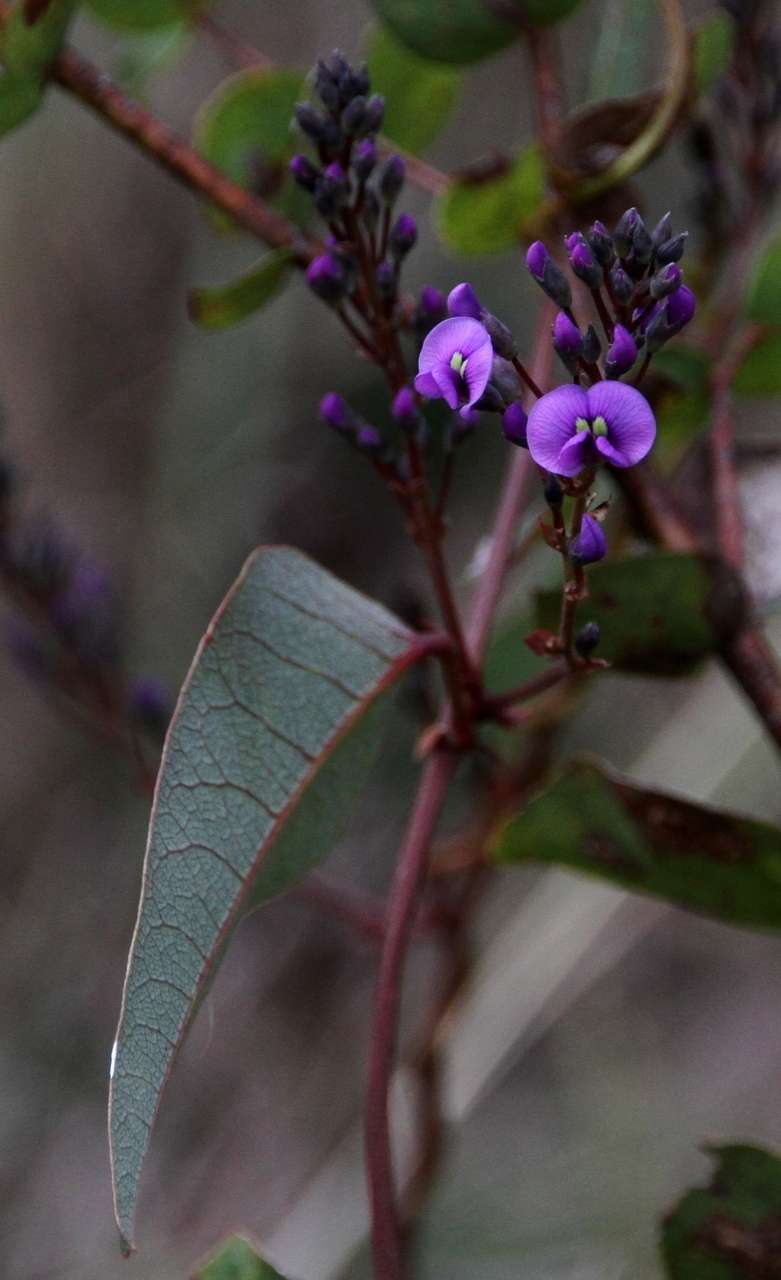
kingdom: Plantae
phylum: Tracheophyta
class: Magnoliopsida
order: Fabales
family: Fabaceae
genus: Hardenbergia
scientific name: Hardenbergia violacea
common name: Coral-pea
